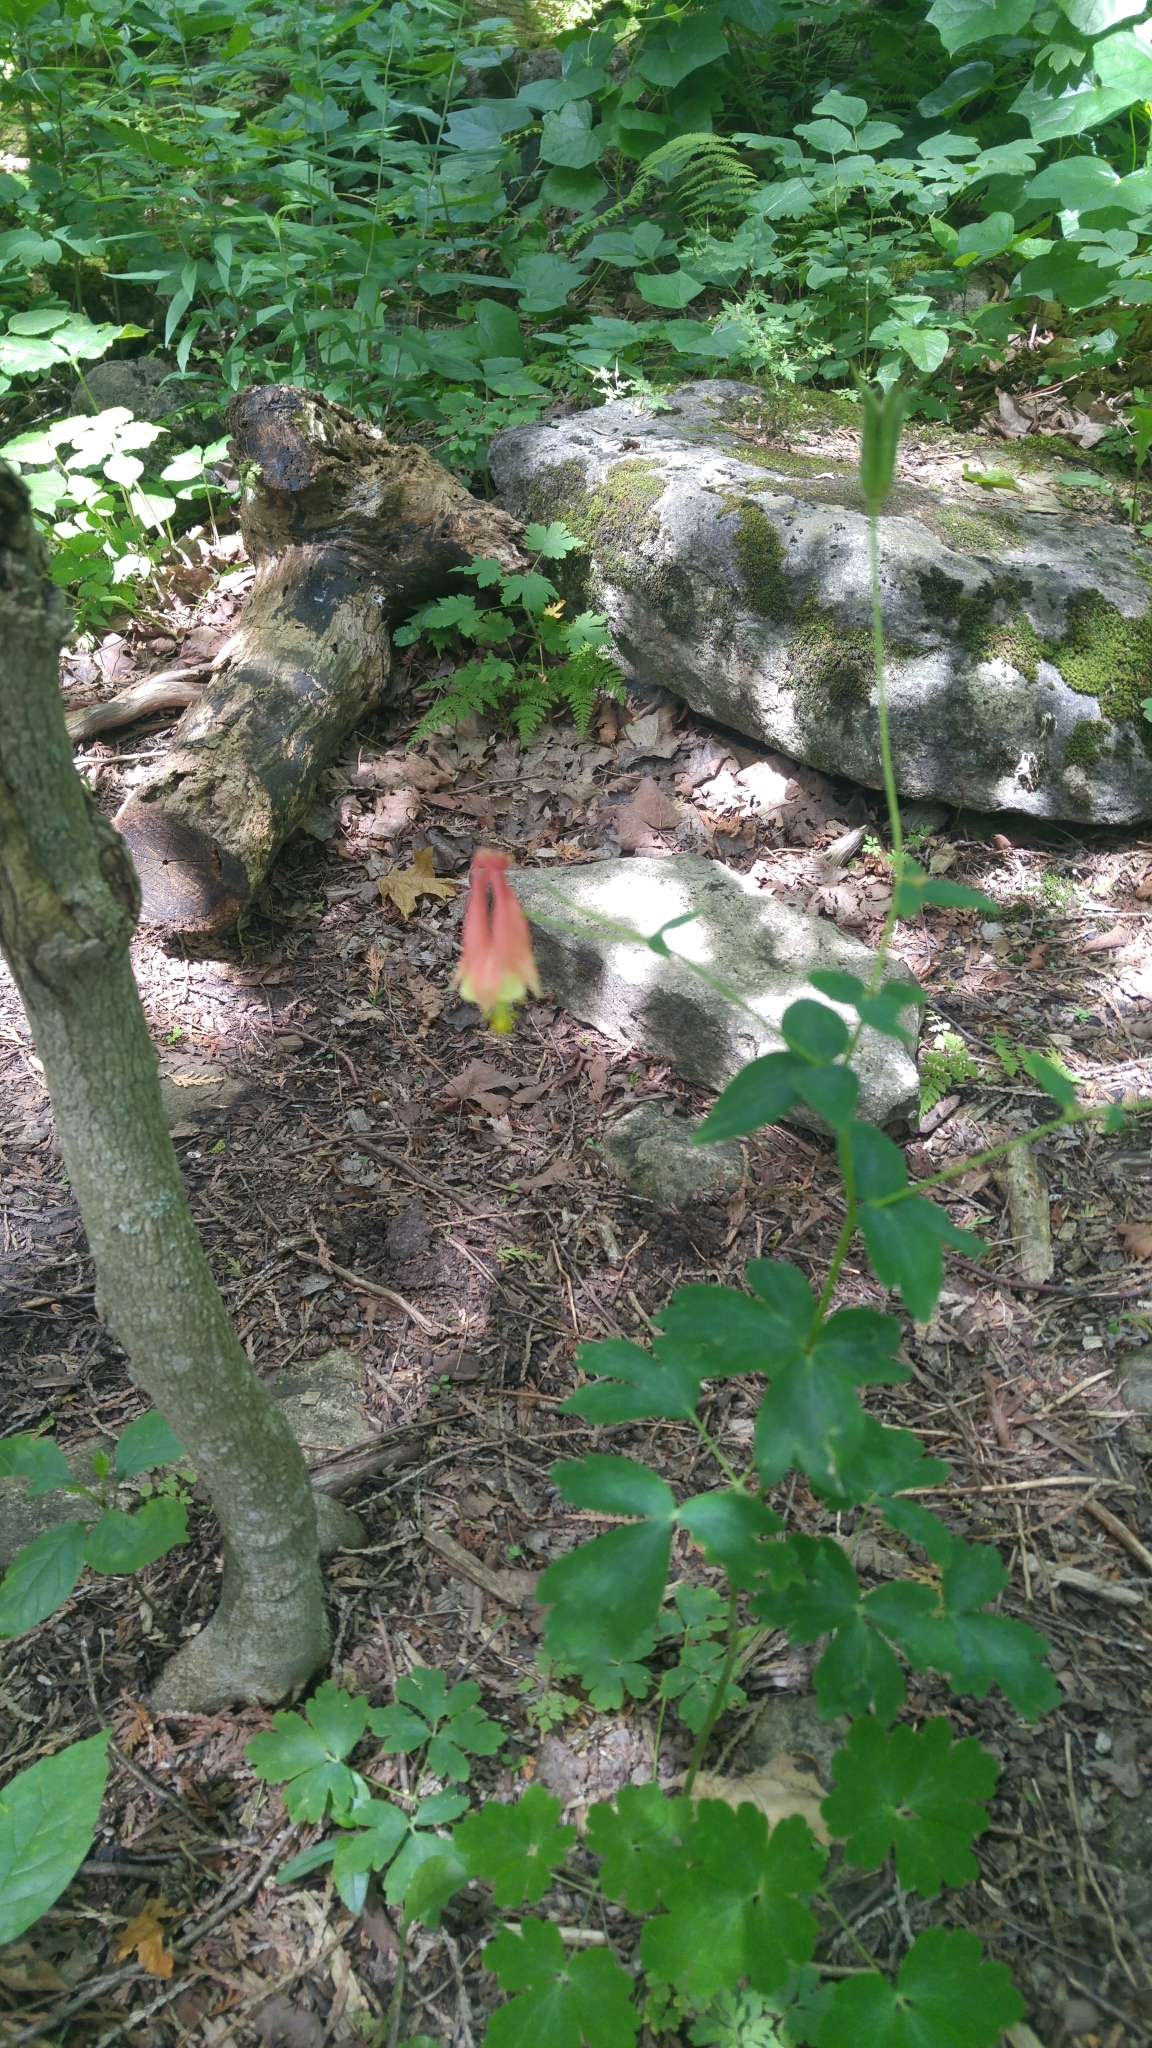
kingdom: Plantae
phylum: Tracheophyta
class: Magnoliopsida
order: Ranunculales
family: Ranunculaceae
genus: Aquilegia
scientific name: Aquilegia canadensis
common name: American columbine
